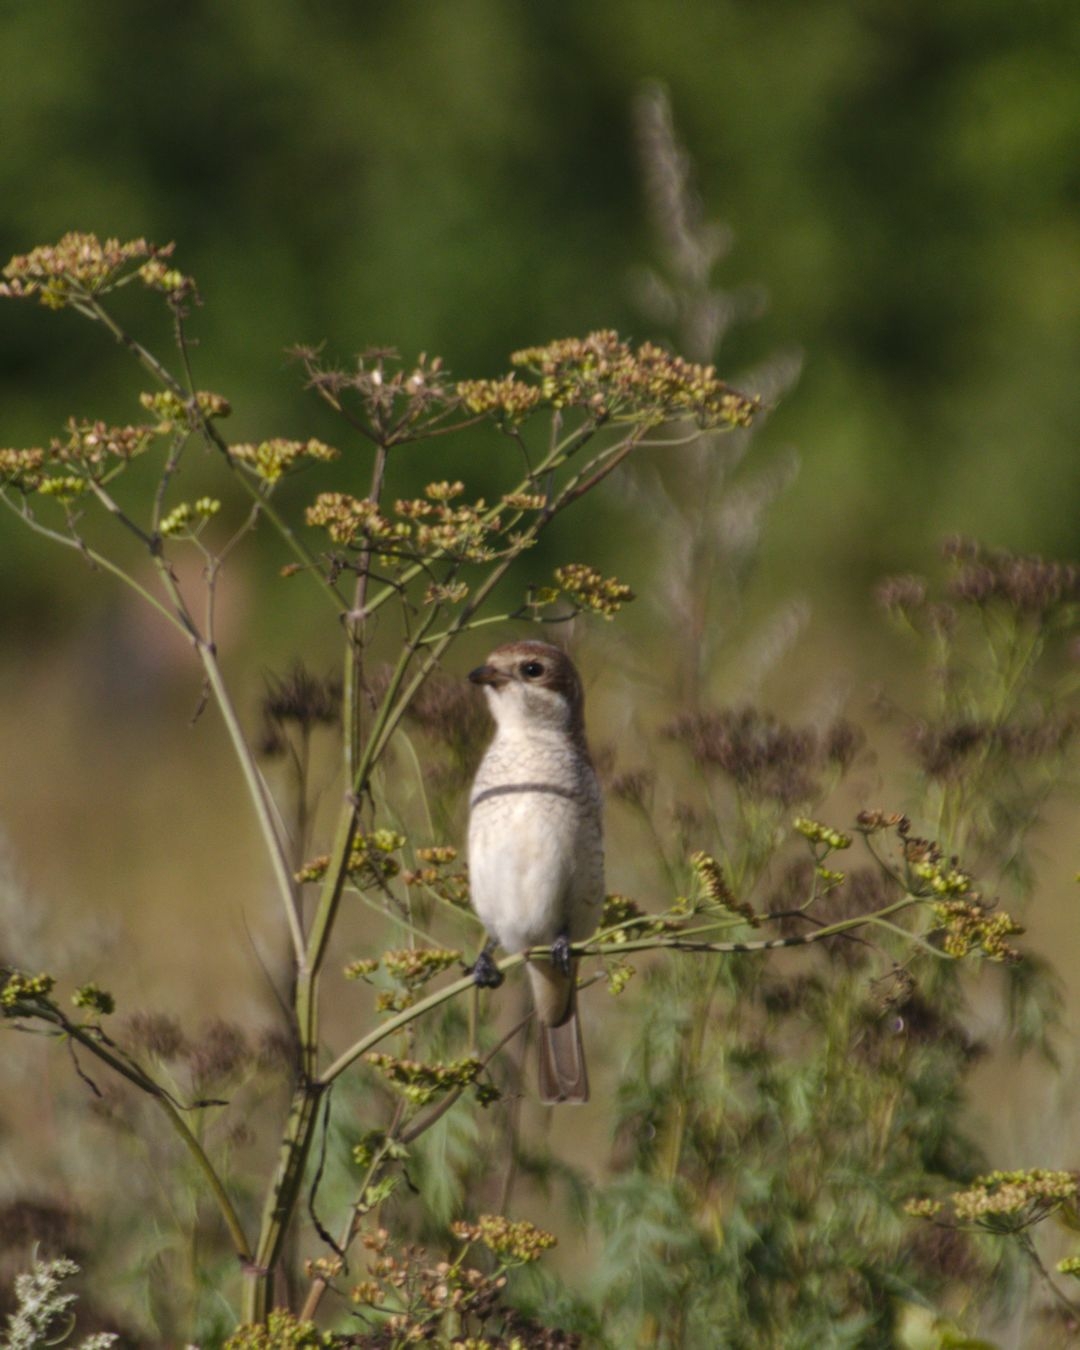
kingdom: Animalia
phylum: Chordata
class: Aves
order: Passeriformes
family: Laniidae
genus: Lanius
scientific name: Lanius collurio
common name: Red-backed shrike
